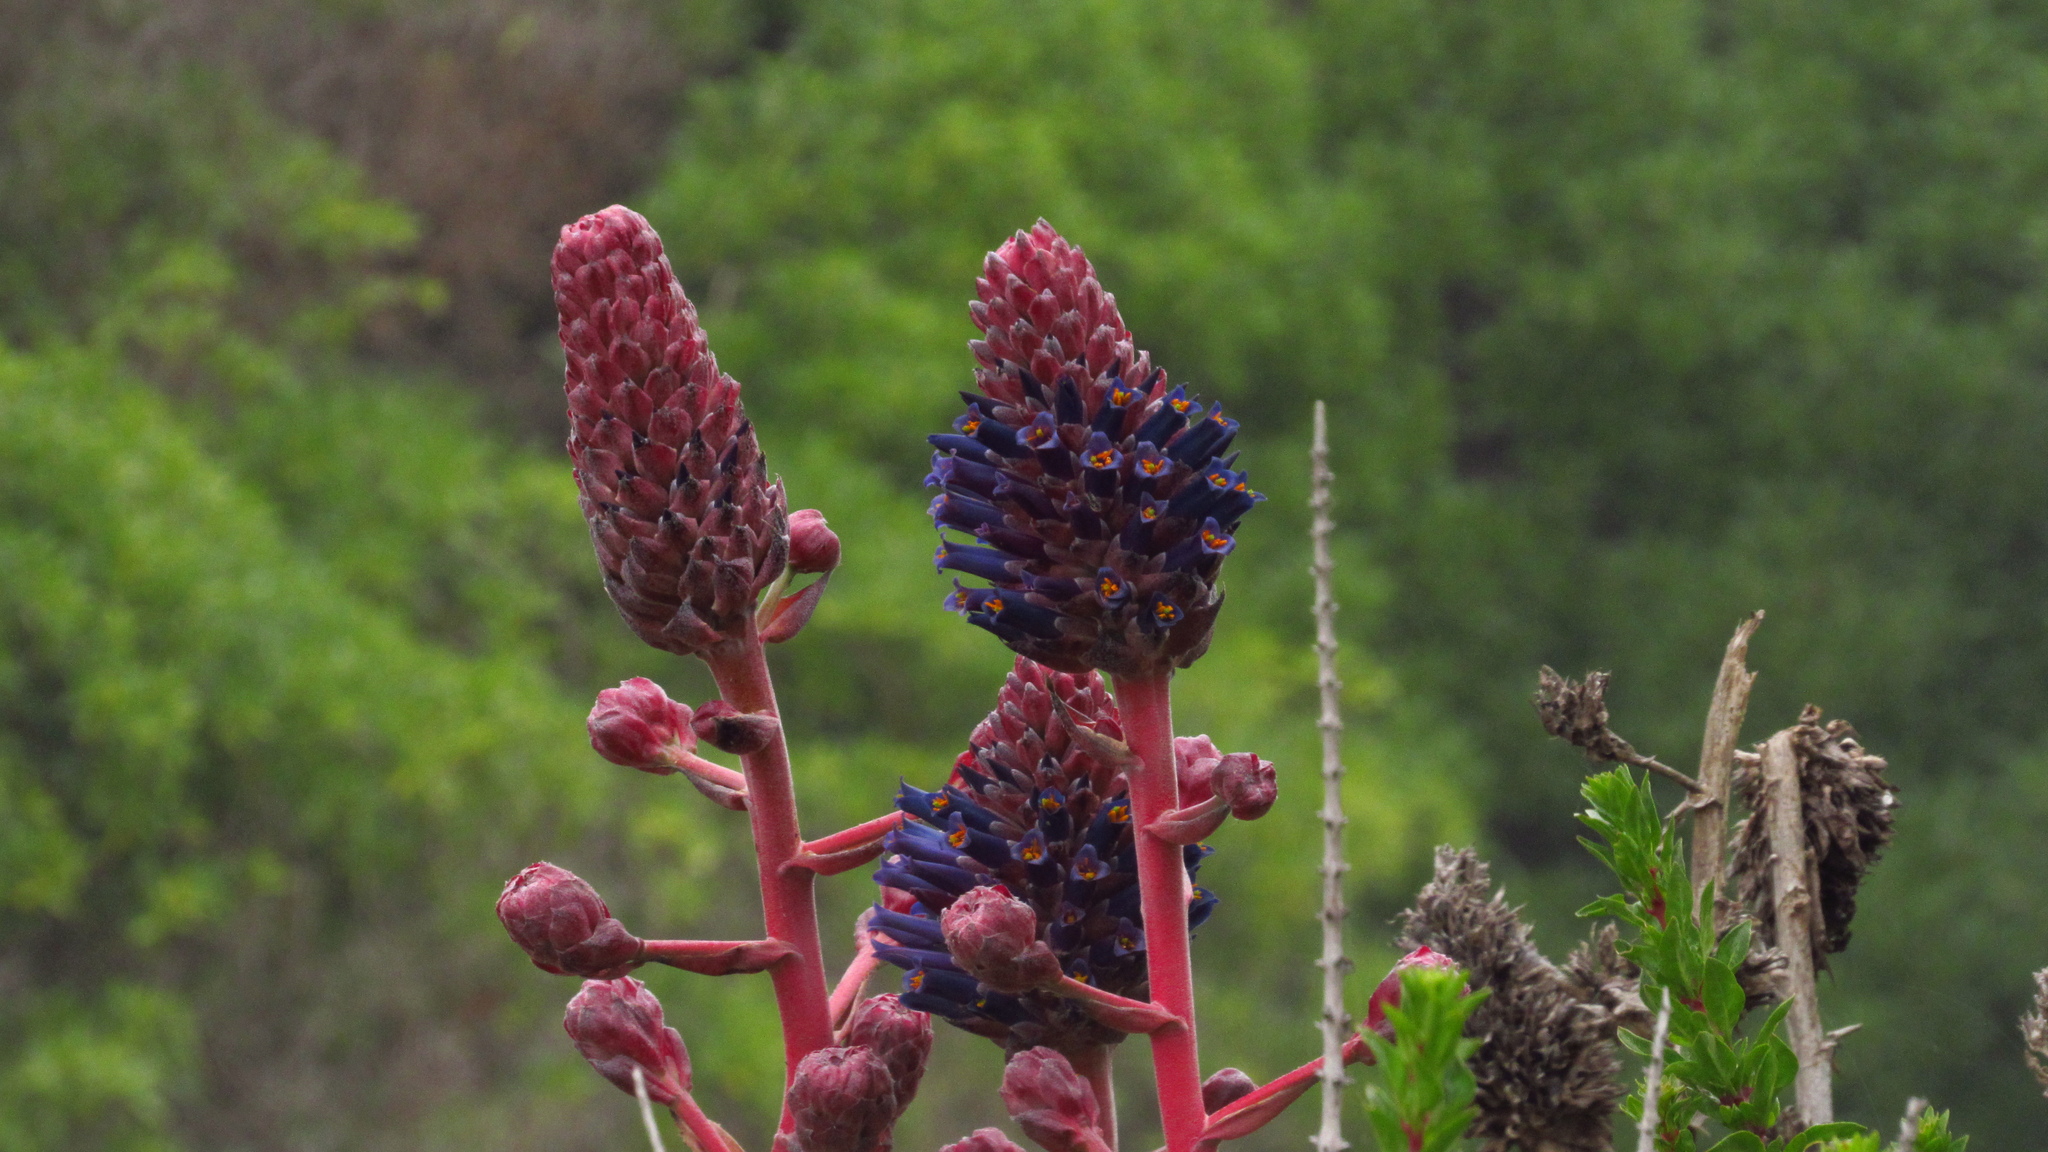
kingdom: Plantae
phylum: Tracheophyta
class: Liliopsida
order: Poales
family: Bromeliaceae
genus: Puya
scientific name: Puya venusta
